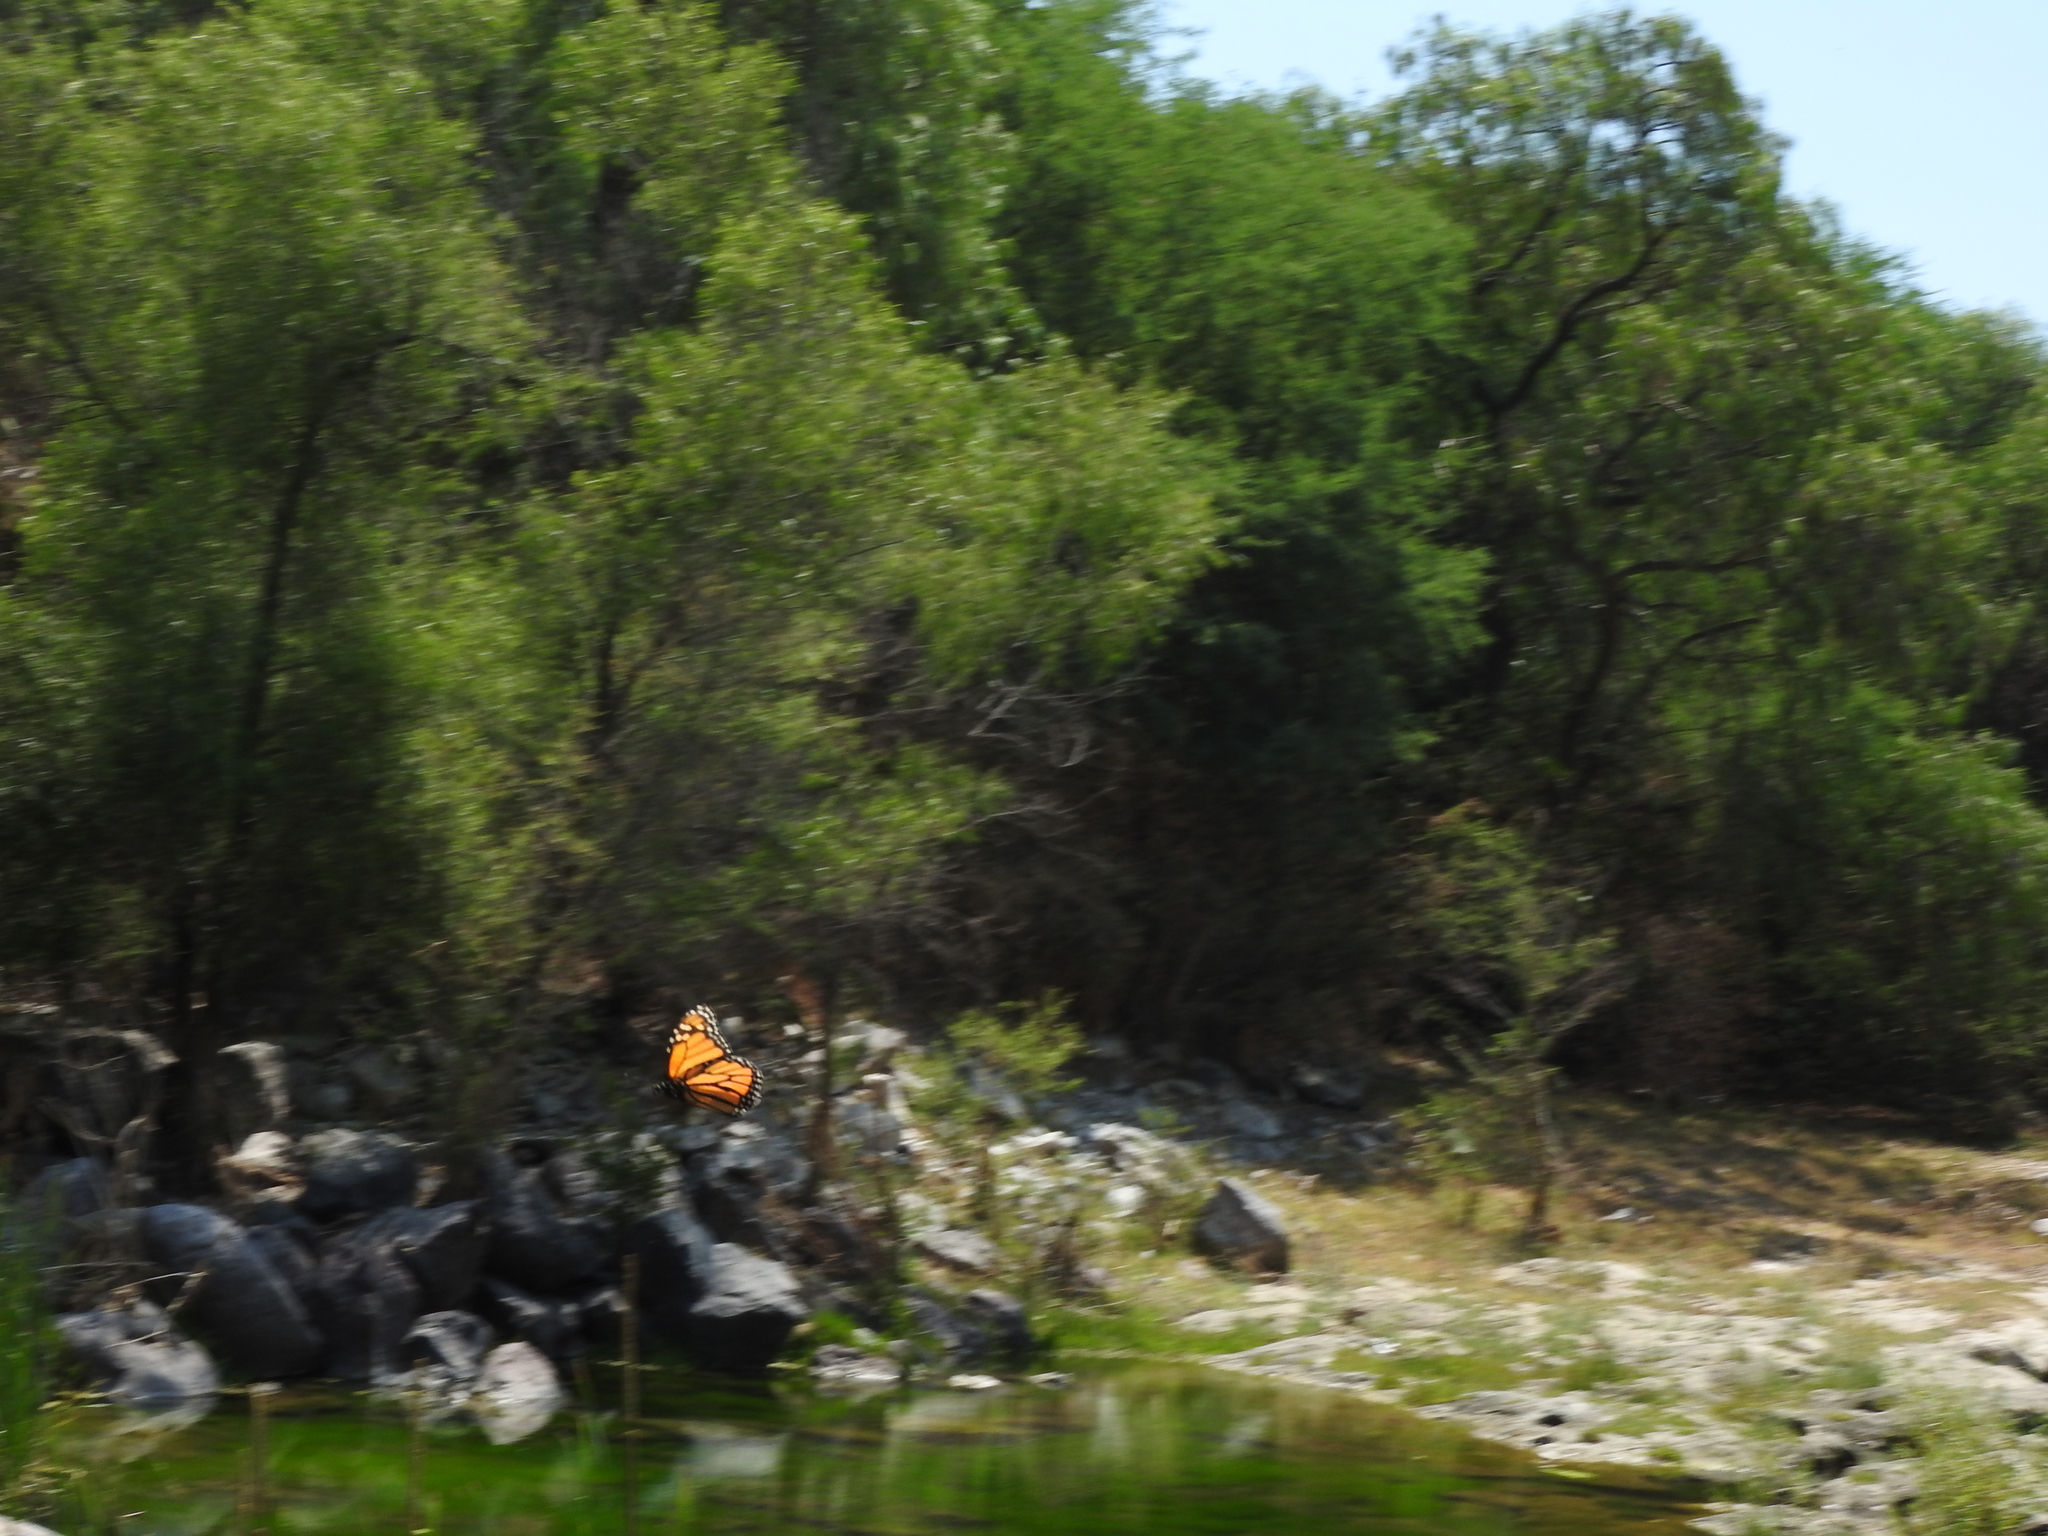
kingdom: Animalia
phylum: Arthropoda
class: Insecta
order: Lepidoptera
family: Nymphalidae
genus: Danaus
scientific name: Danaus plexippus
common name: Monarch
